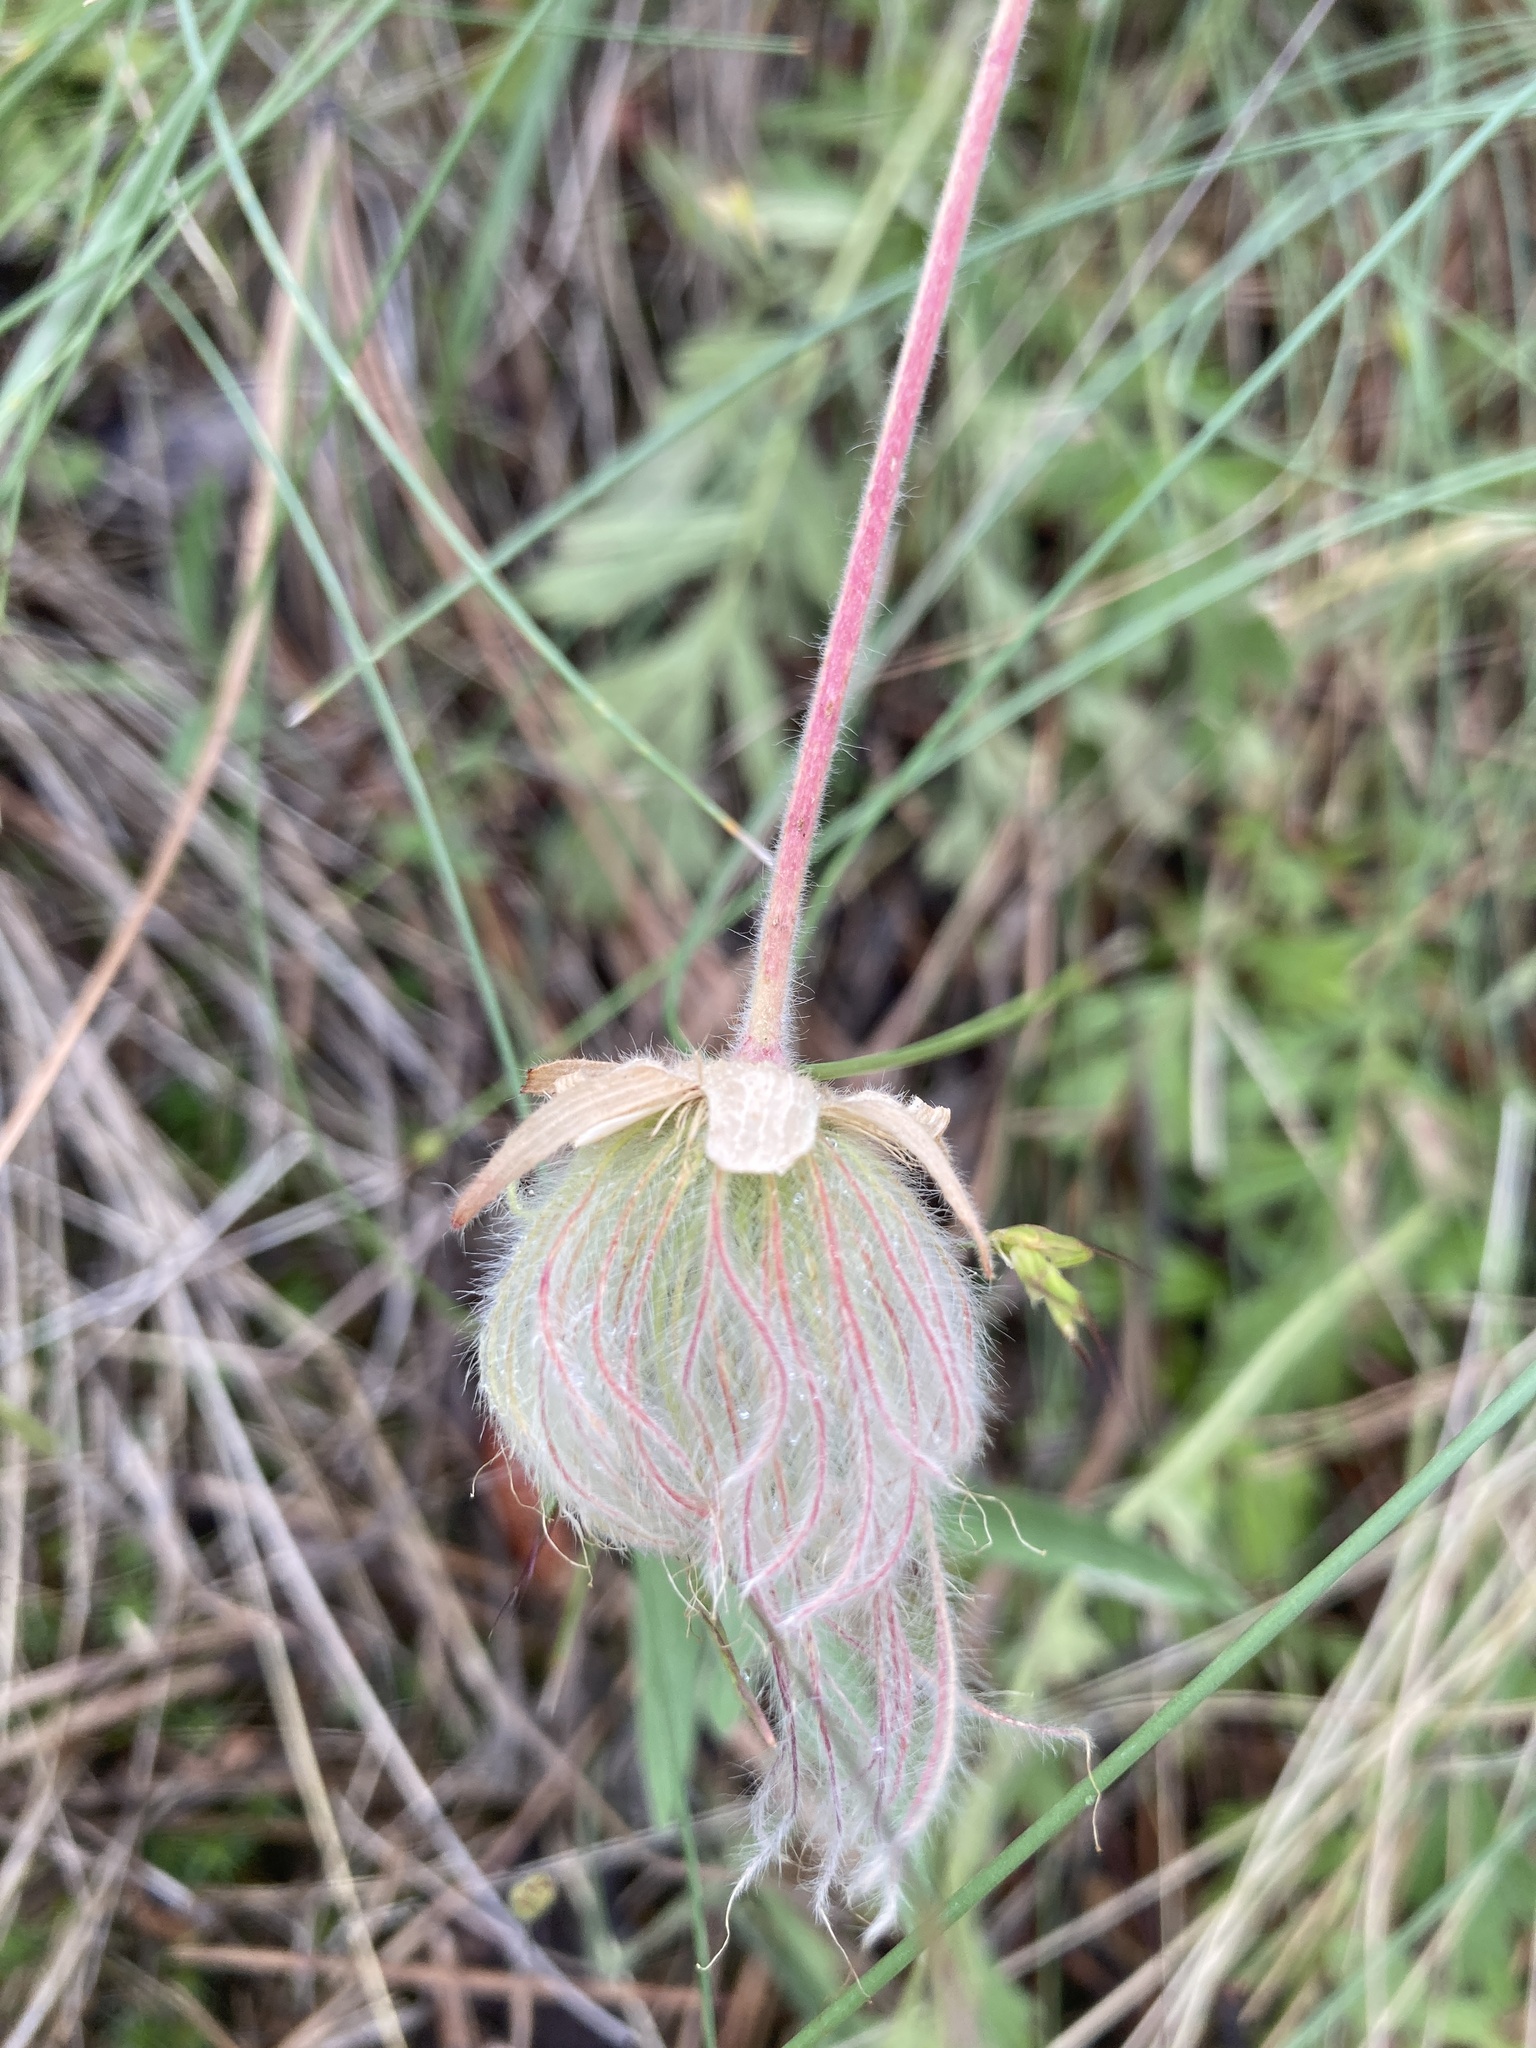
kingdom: Plantae
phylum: Tracheophyta
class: Magnoliopsida
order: Rosales
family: Rosaceae
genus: Geum
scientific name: Geum triflorum
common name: Old man's whiskers
